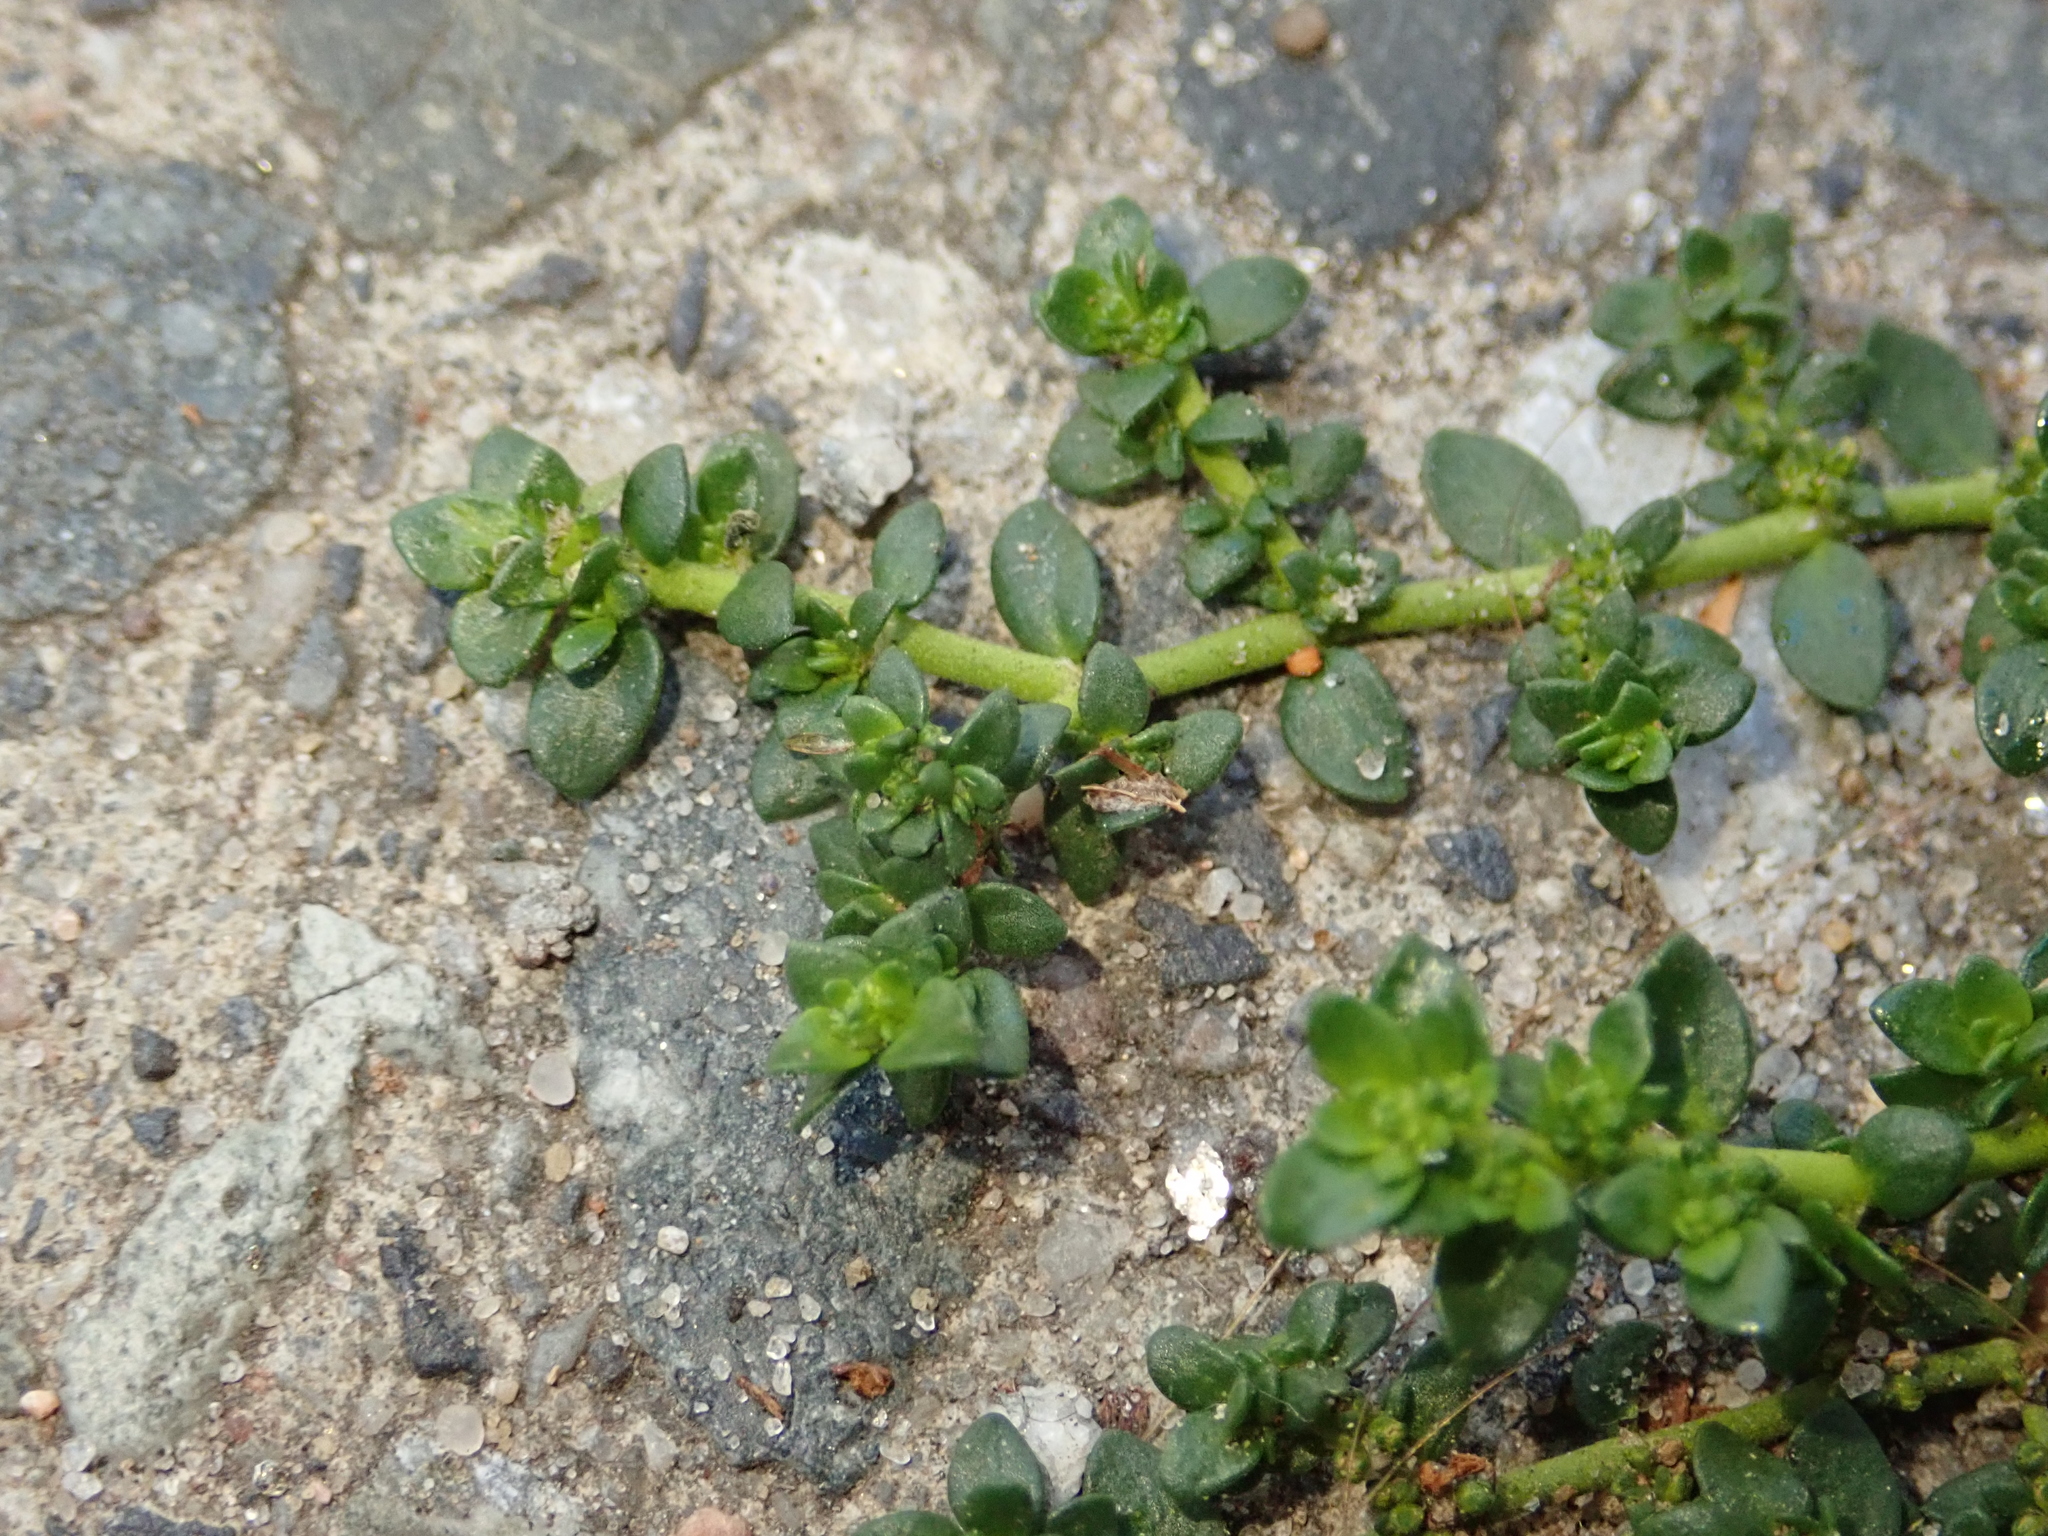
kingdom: Plantae
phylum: Tracheophyta
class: Magnoliopsida
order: Caryophyllales
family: Caryophyllaceae
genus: Herniaria
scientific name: Herniaria glabra
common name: Smooth rupturewort
